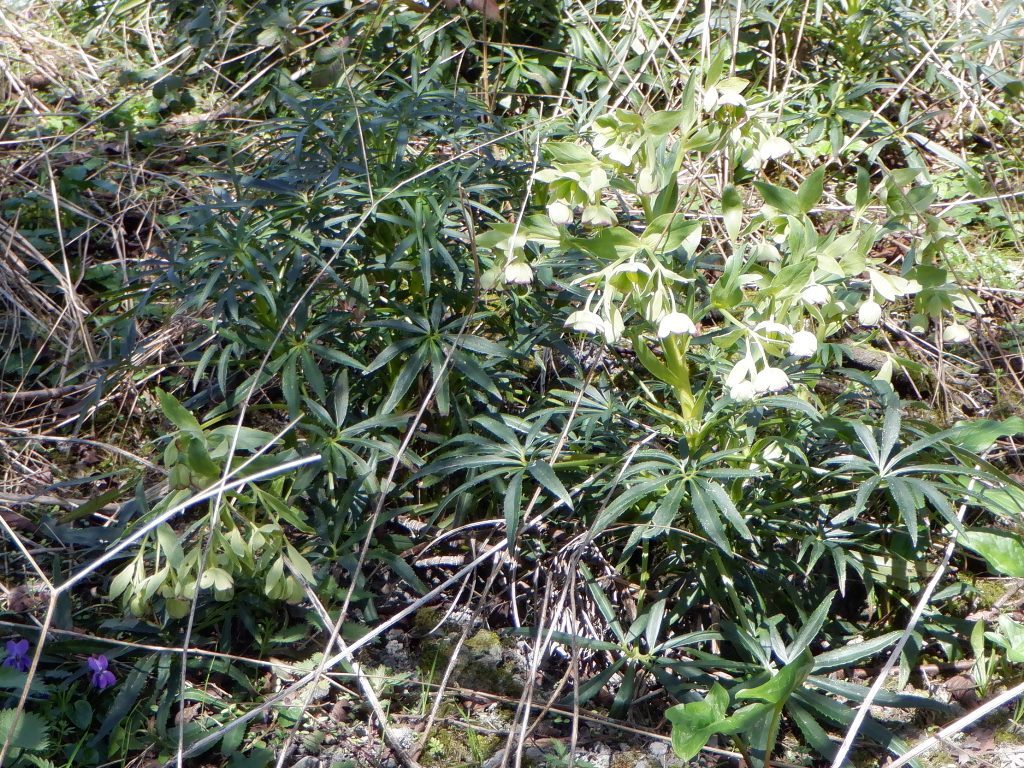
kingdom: Plantae
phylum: Tracheophyta
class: Magnoliopsida
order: Ranunculales
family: Ranunculaceae
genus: Helleborus
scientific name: Helleborus foetidus
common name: Stinking hellebore
